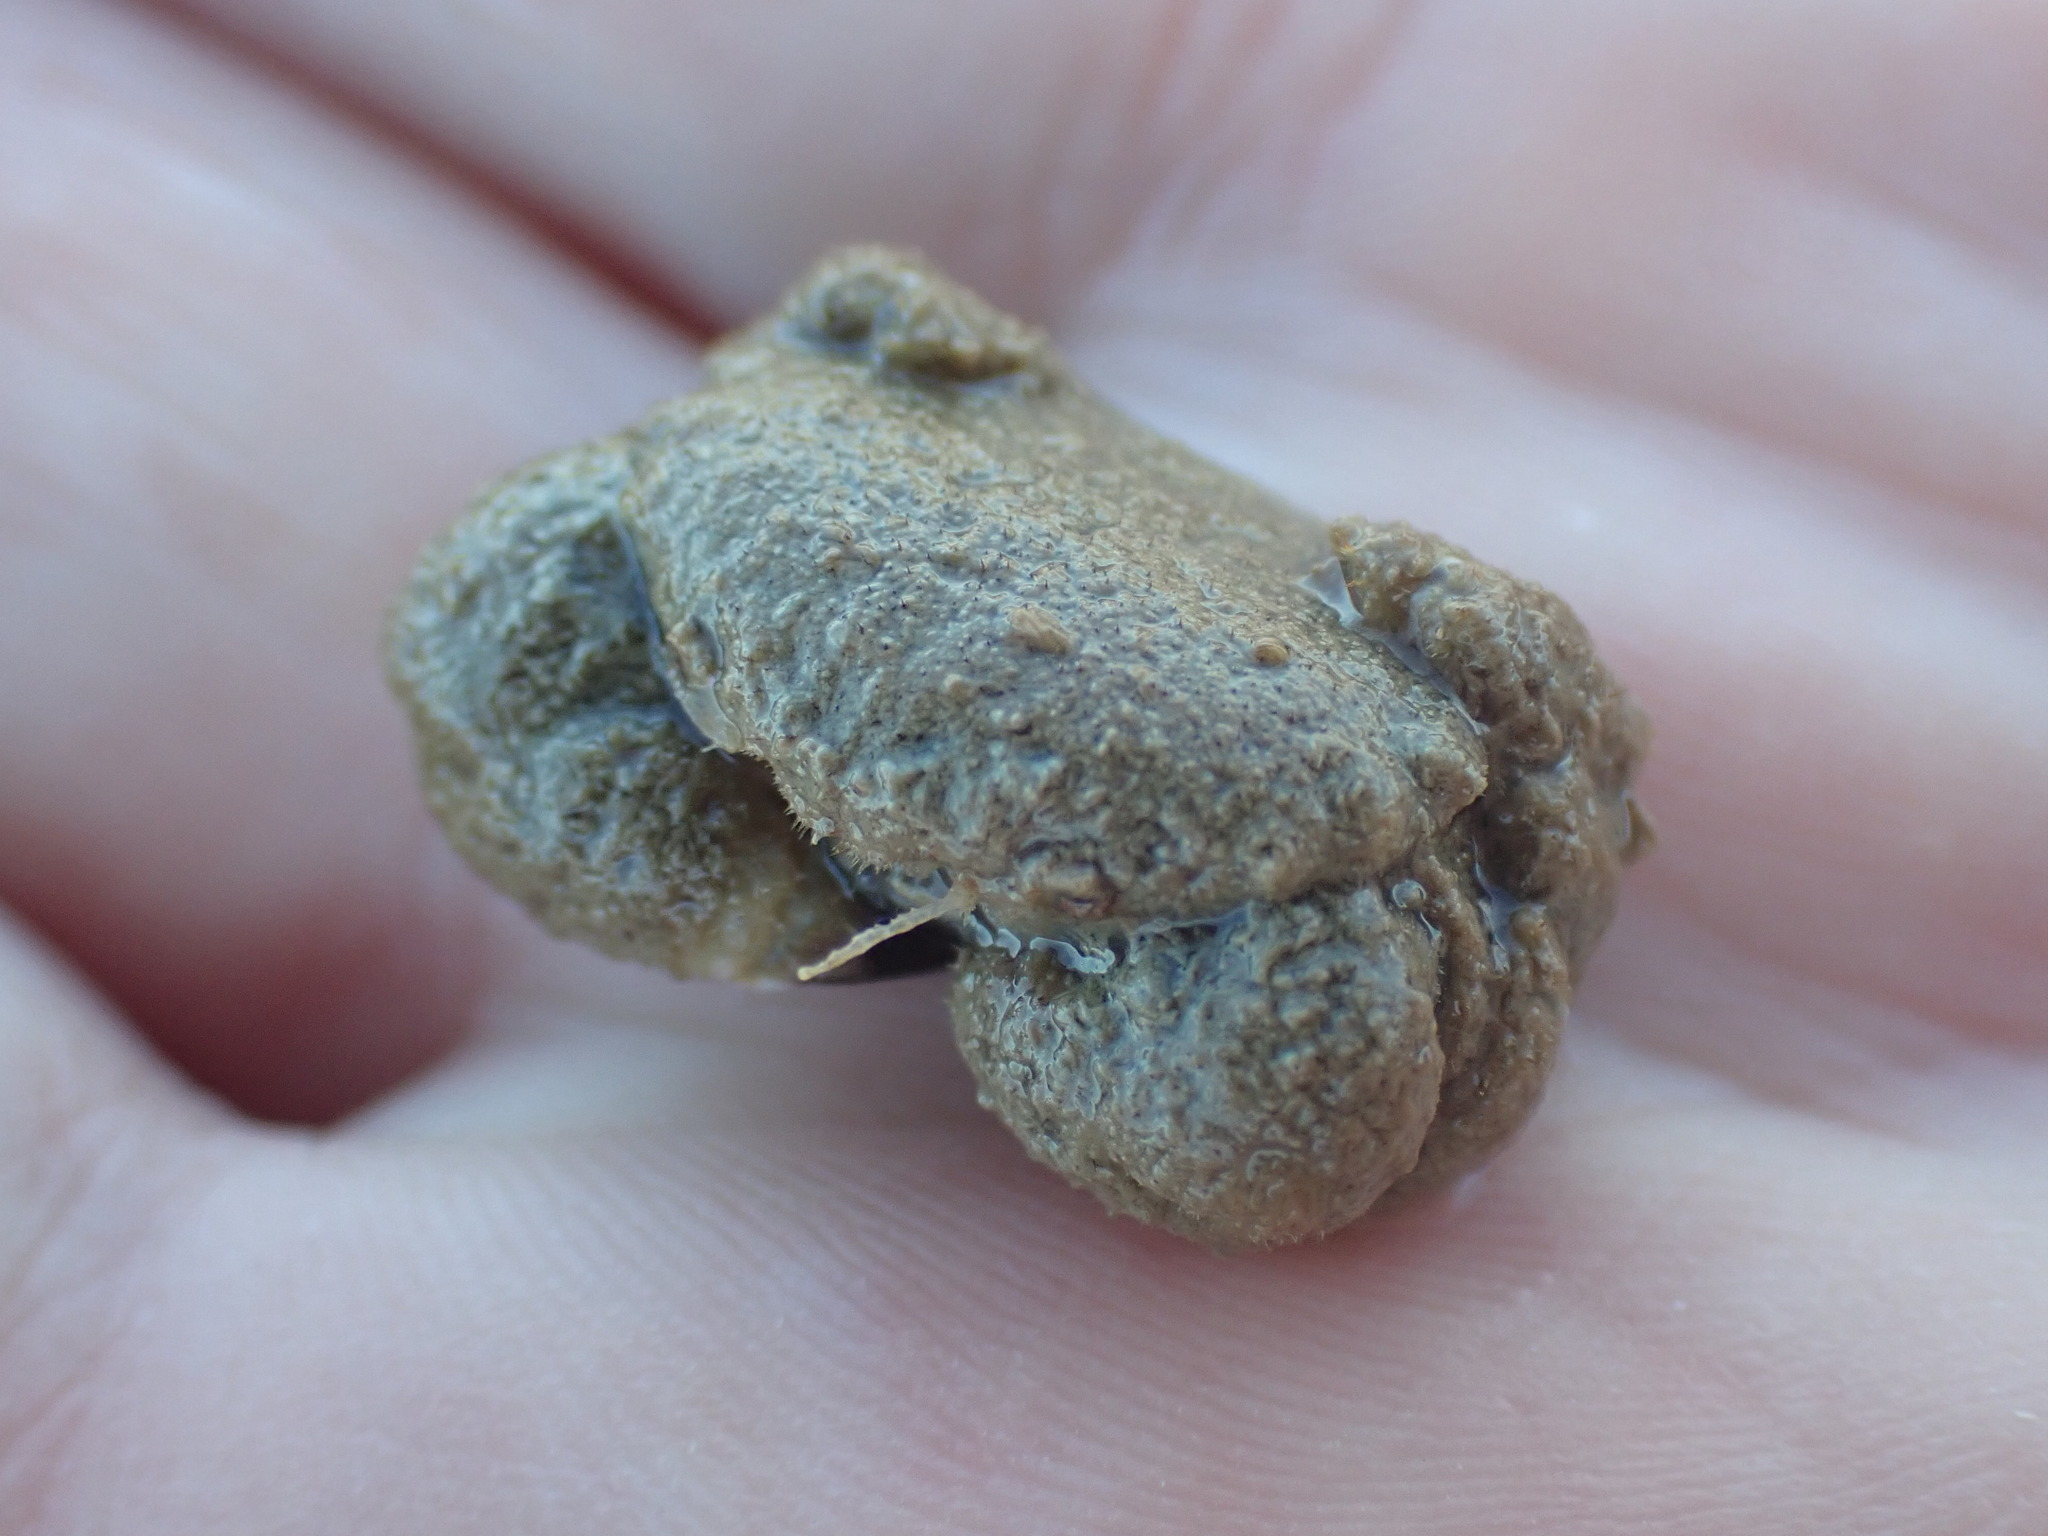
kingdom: Animalia
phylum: Arthropoda
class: Malacostraca
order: Decapoda
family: Pilumnidae
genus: Pilumnus
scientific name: Pilumnus lumpinus
